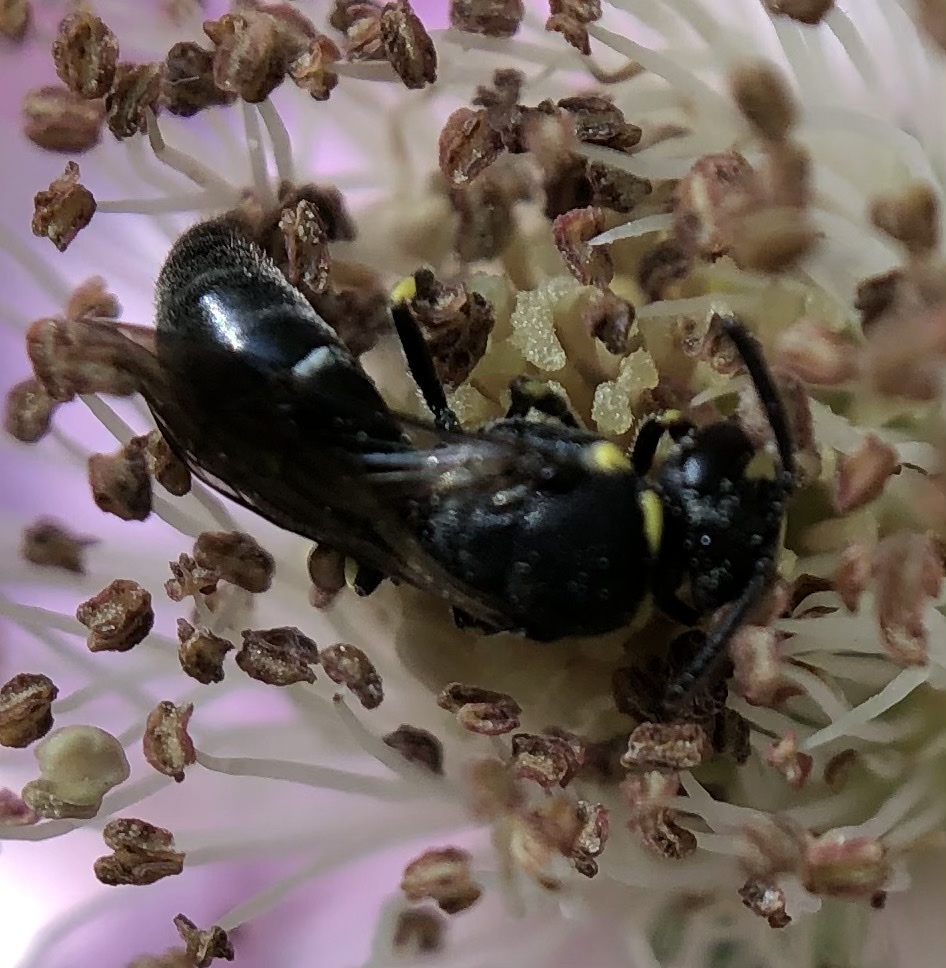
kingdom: Animalia
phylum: Arthropoda
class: Insecta
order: Hymenoptera
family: Colletidae
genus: Hylaeus
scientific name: Hylaeus modestus
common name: Yellow-faced bee
